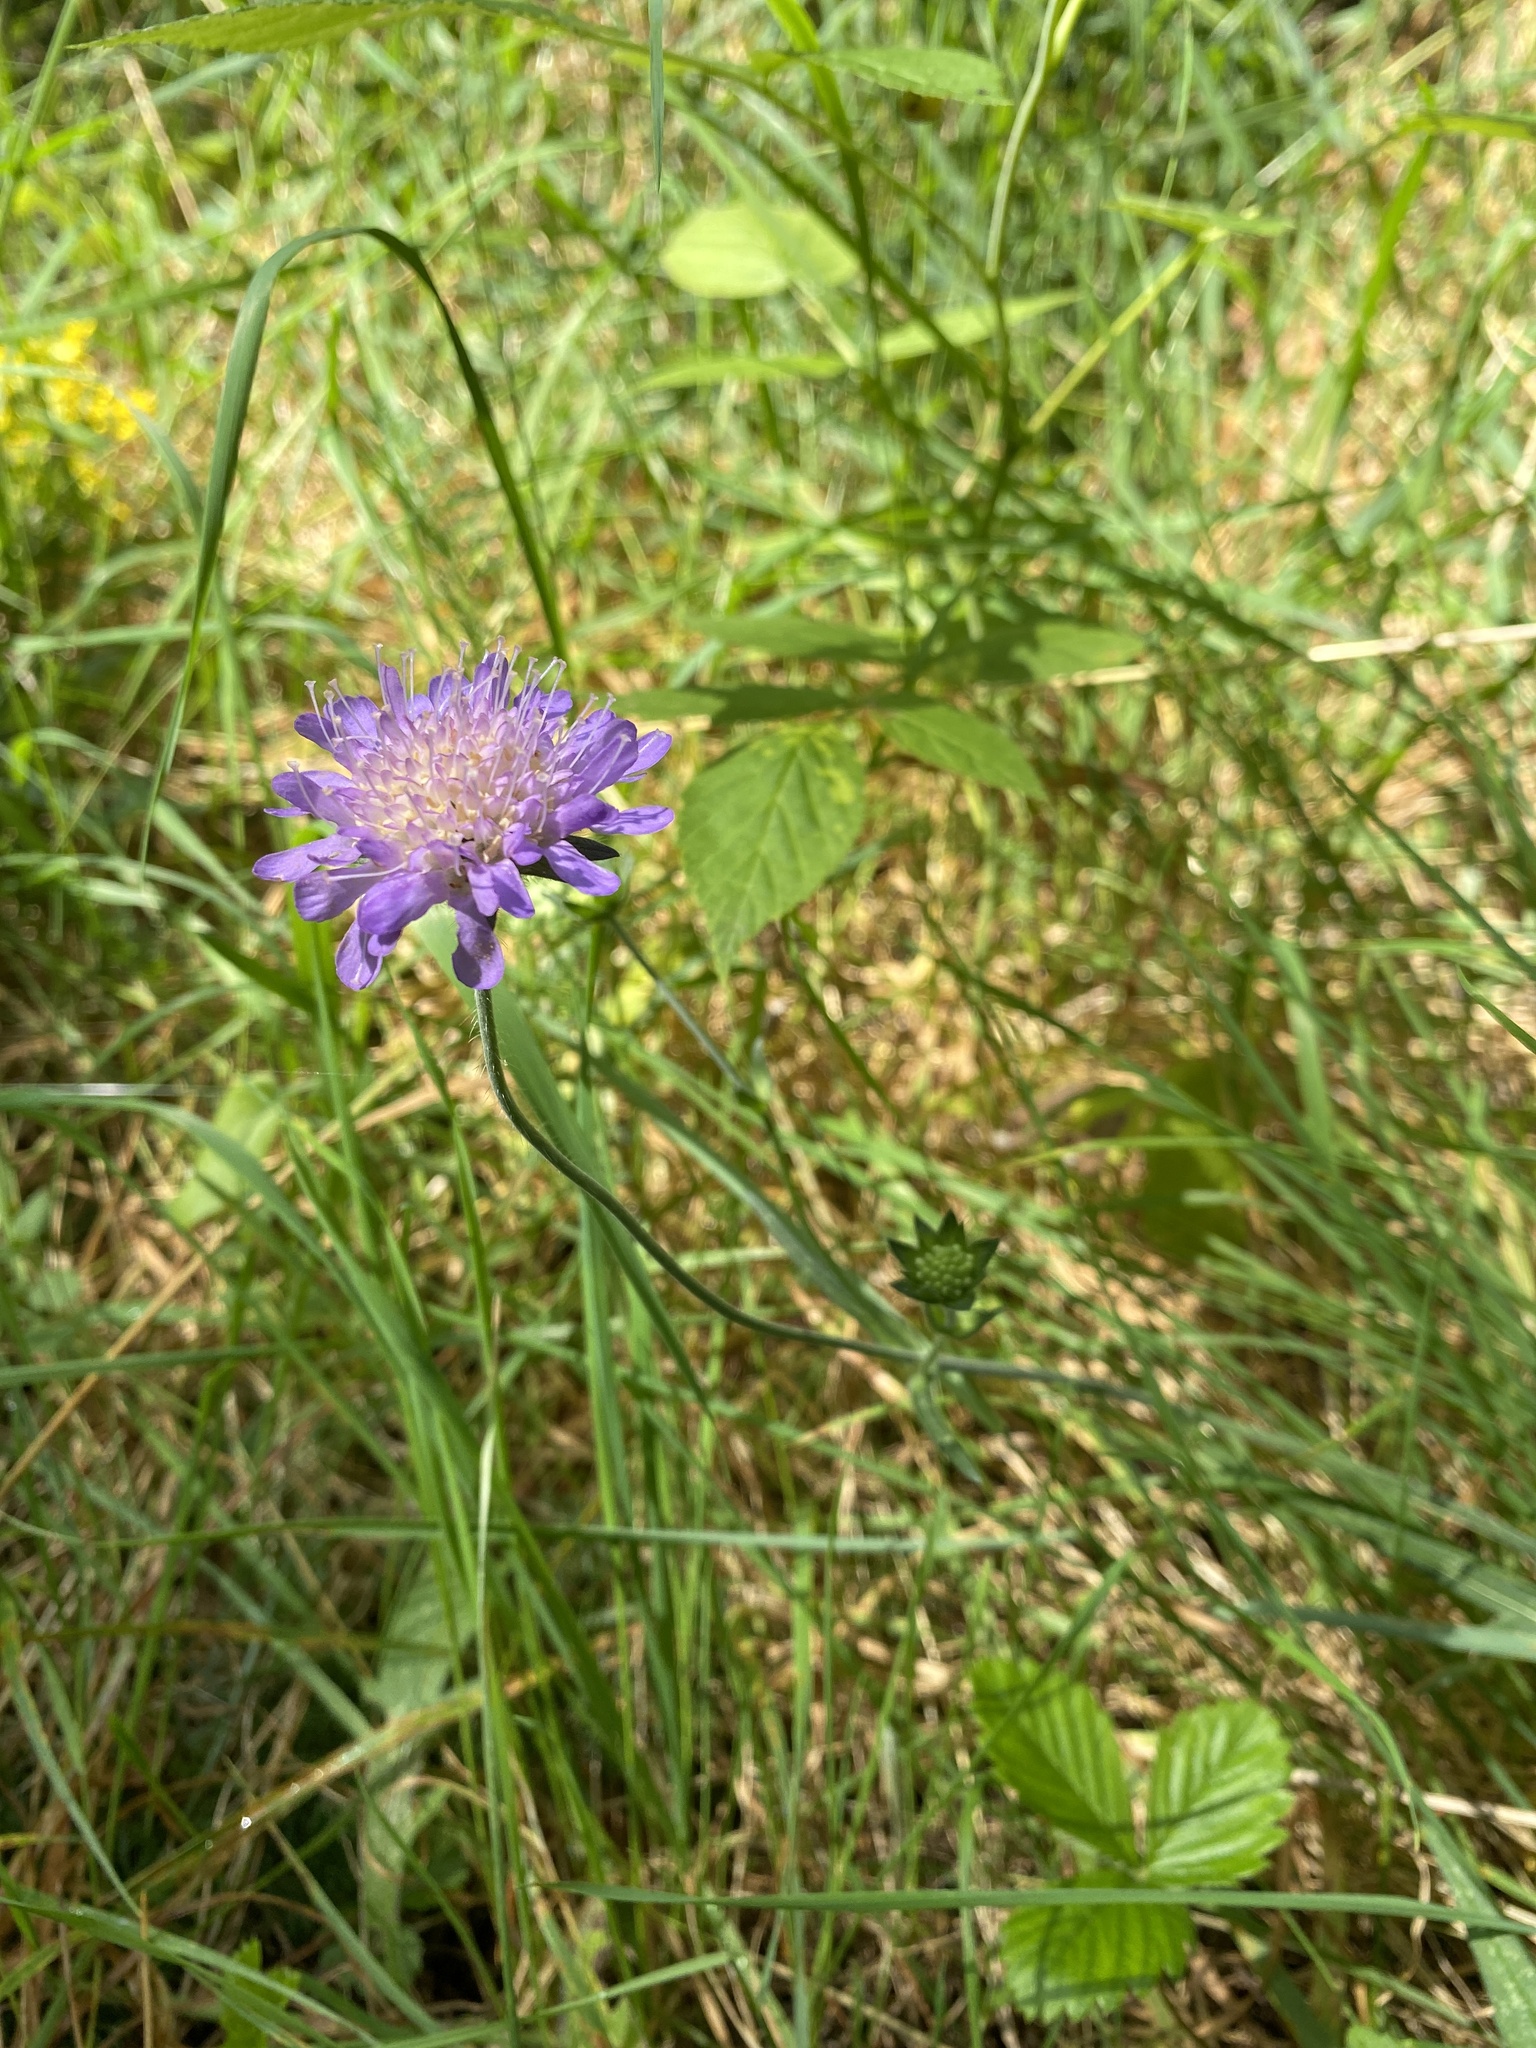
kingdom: Plantae
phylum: Tracheophyta
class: Magnoliopsida
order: Dipsacales
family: Caprifoliaceae
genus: Knautia
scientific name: Knautia arvensis
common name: Field scabiosa
